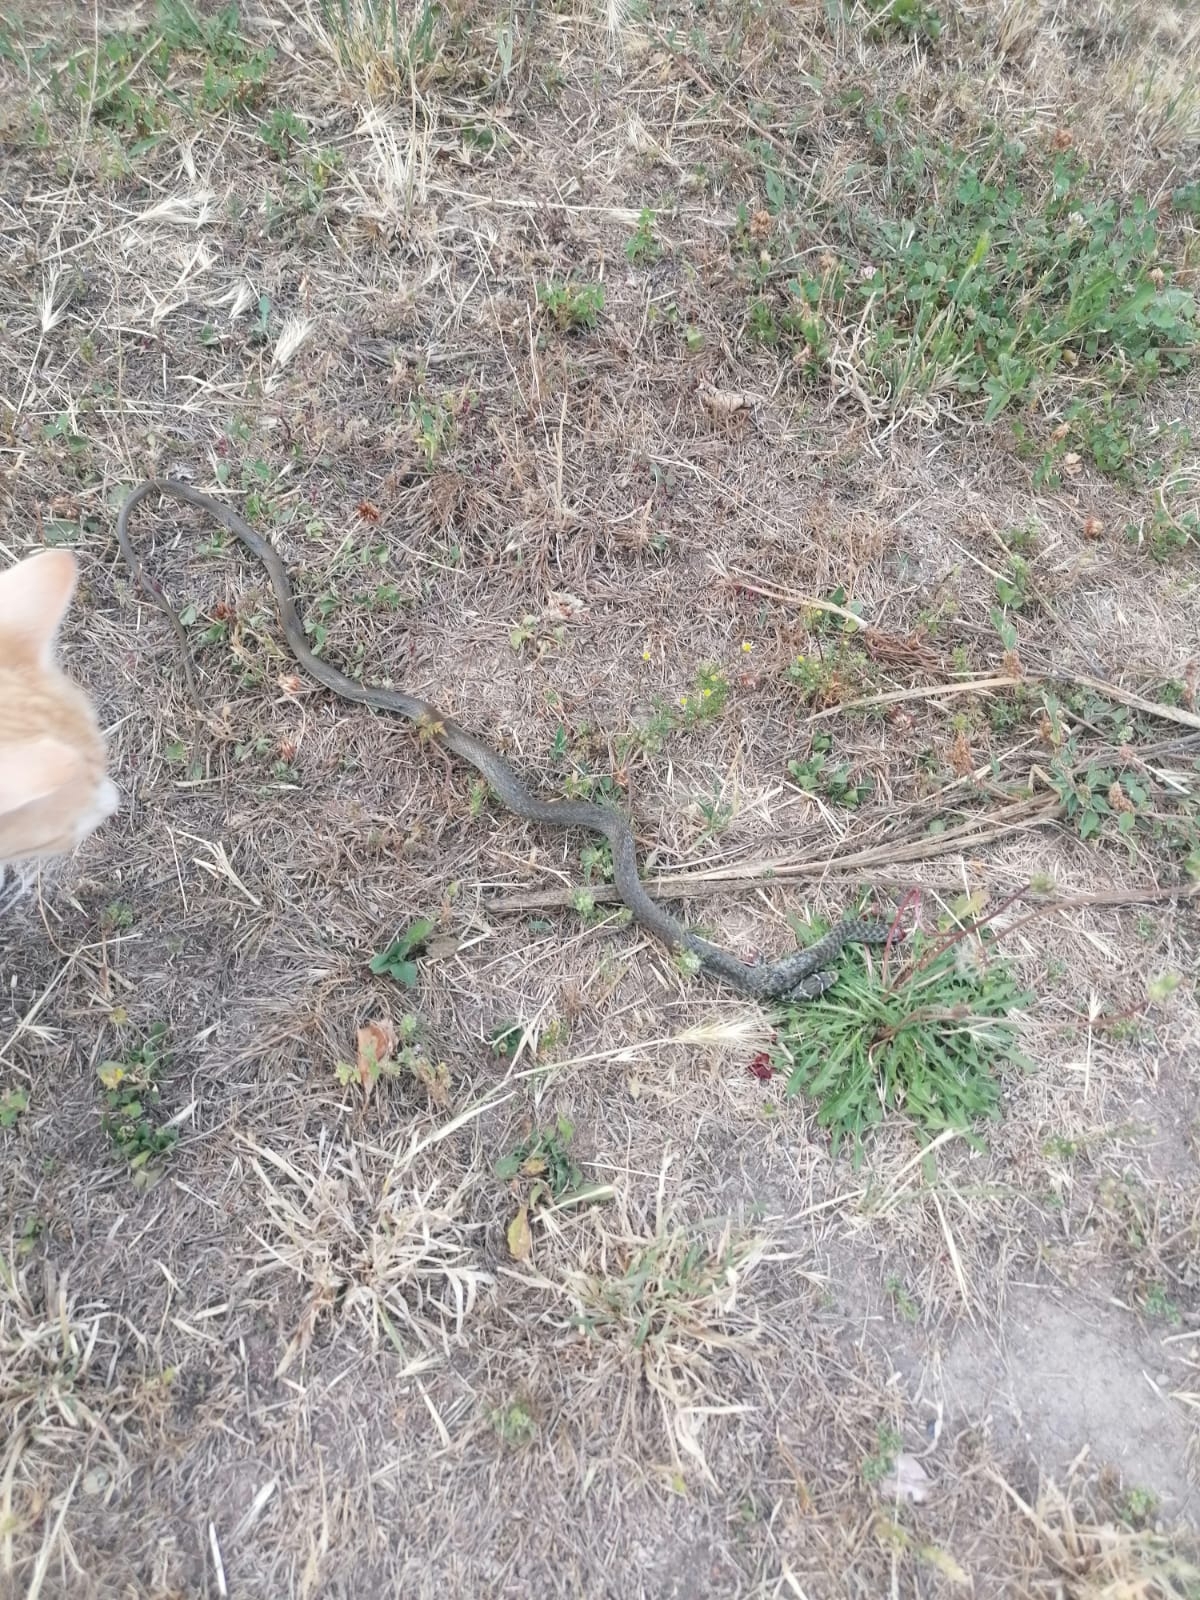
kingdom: Animalia
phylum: Chordata
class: Squamata
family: Colubridae
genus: Hierophis
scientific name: Hierophis viridiflavus
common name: Green whip snake
